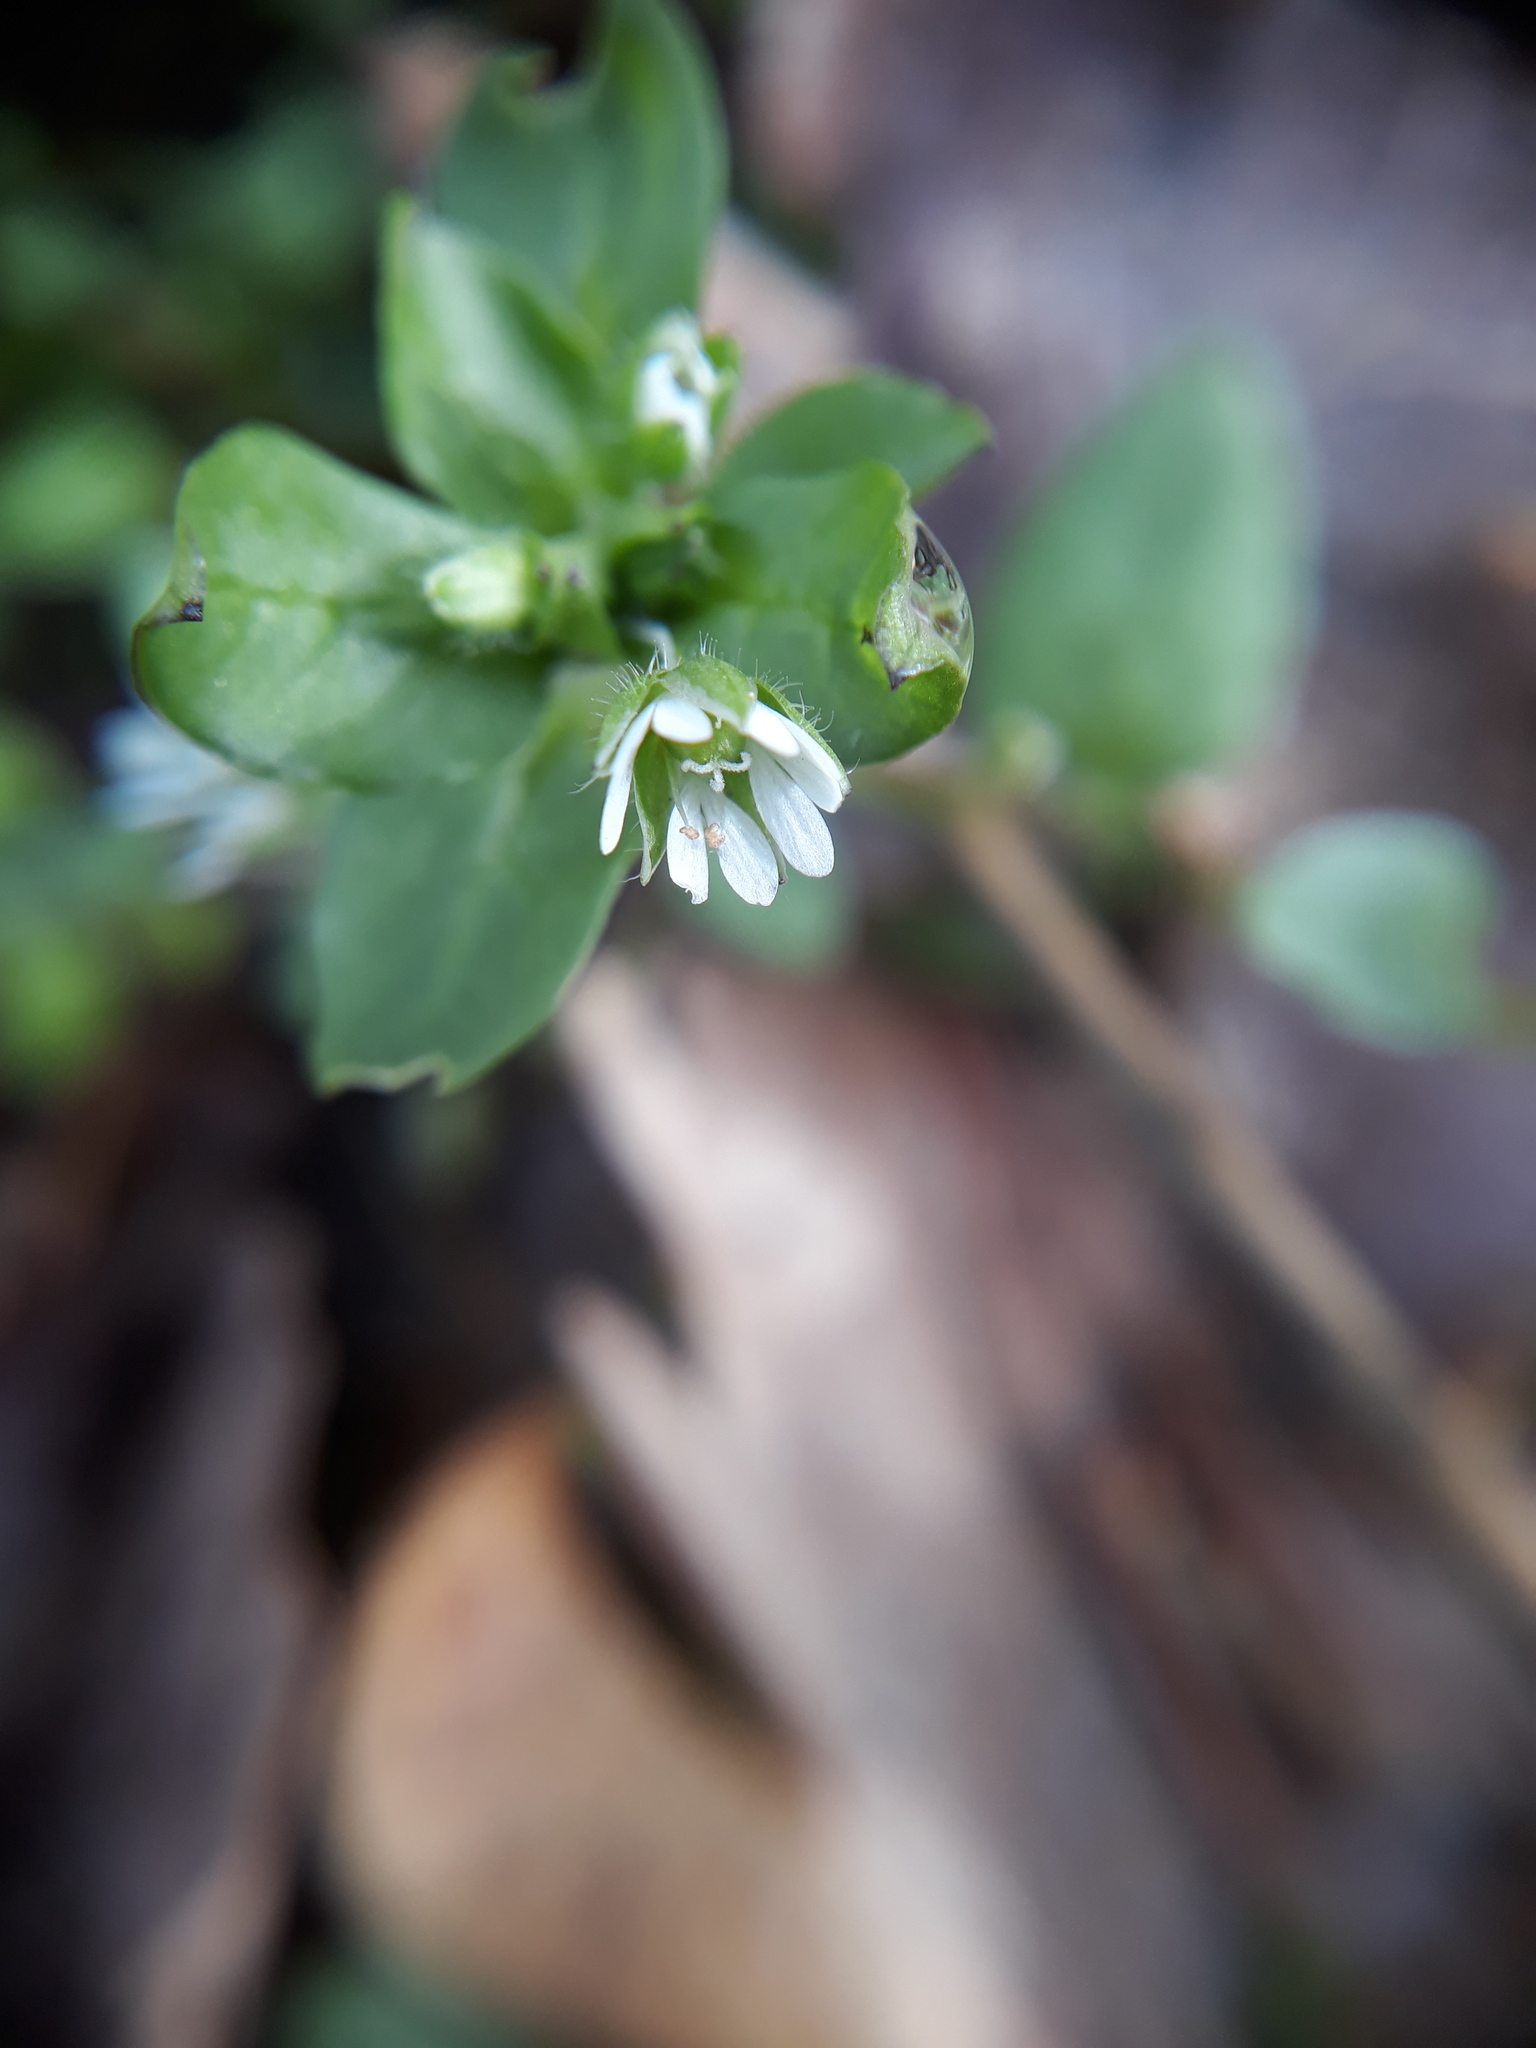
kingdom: Plantae
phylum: Tracheophyta
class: Magnoliopsida
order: Caryophyllales
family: Caryophyllaceae
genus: Stellaria
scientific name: Stellaria media
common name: Common chickweed
